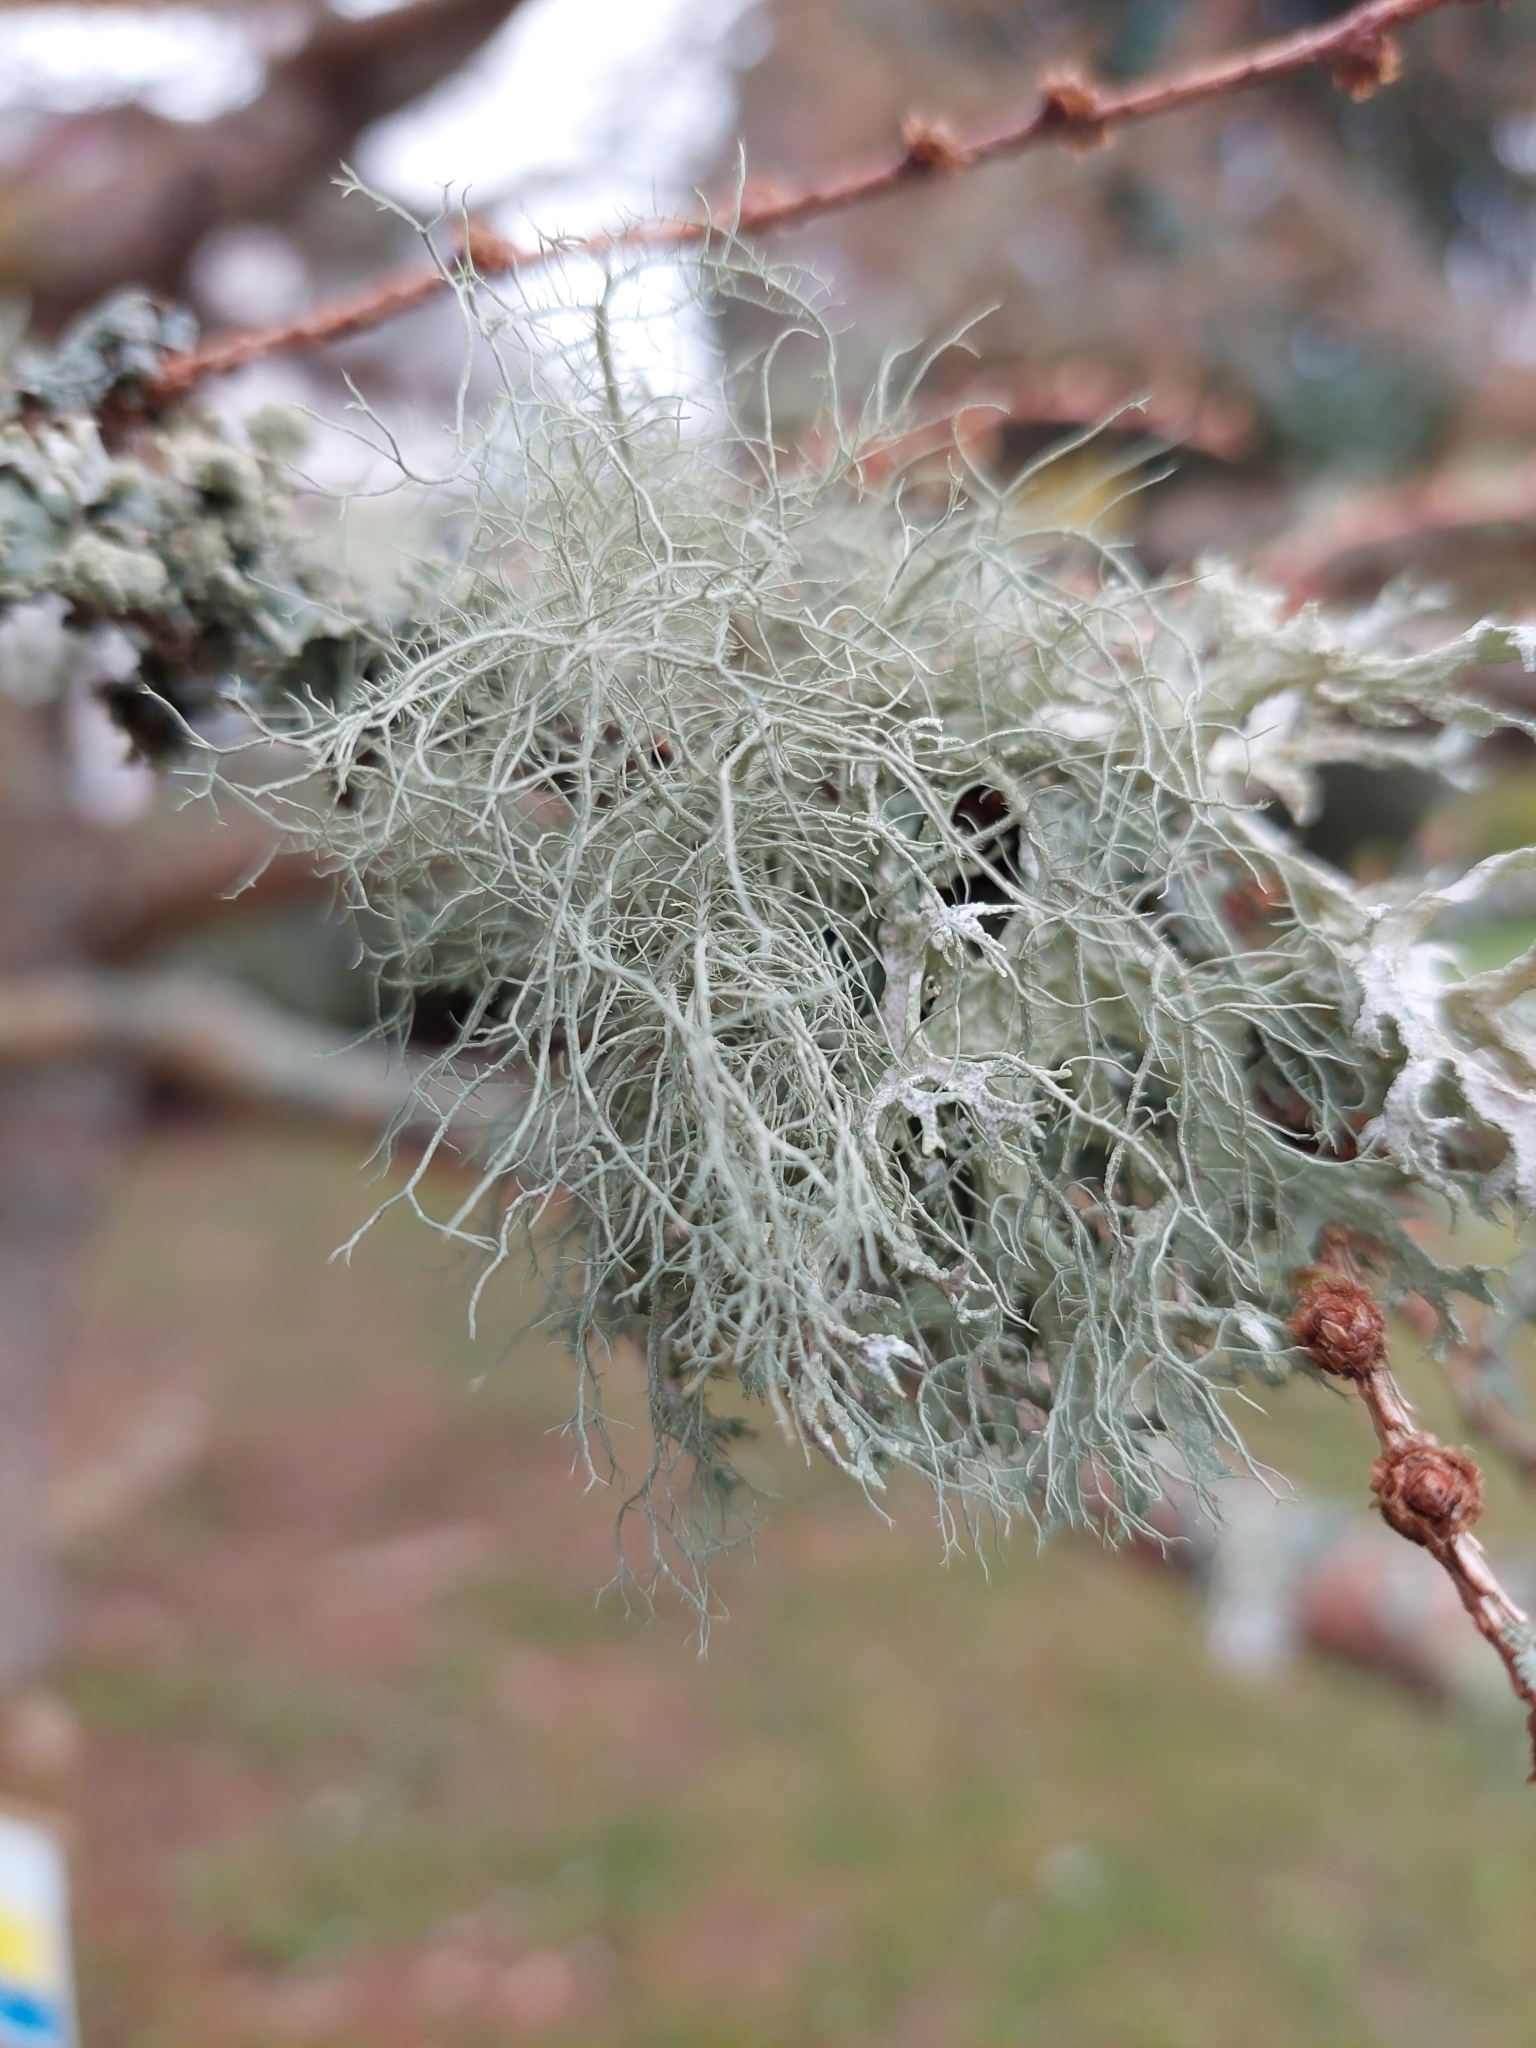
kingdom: Fungi
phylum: Ascomycota
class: Lecanoromycetes
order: Lecanorales
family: Parmeliaceae
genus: Usnea
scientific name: Usnea
